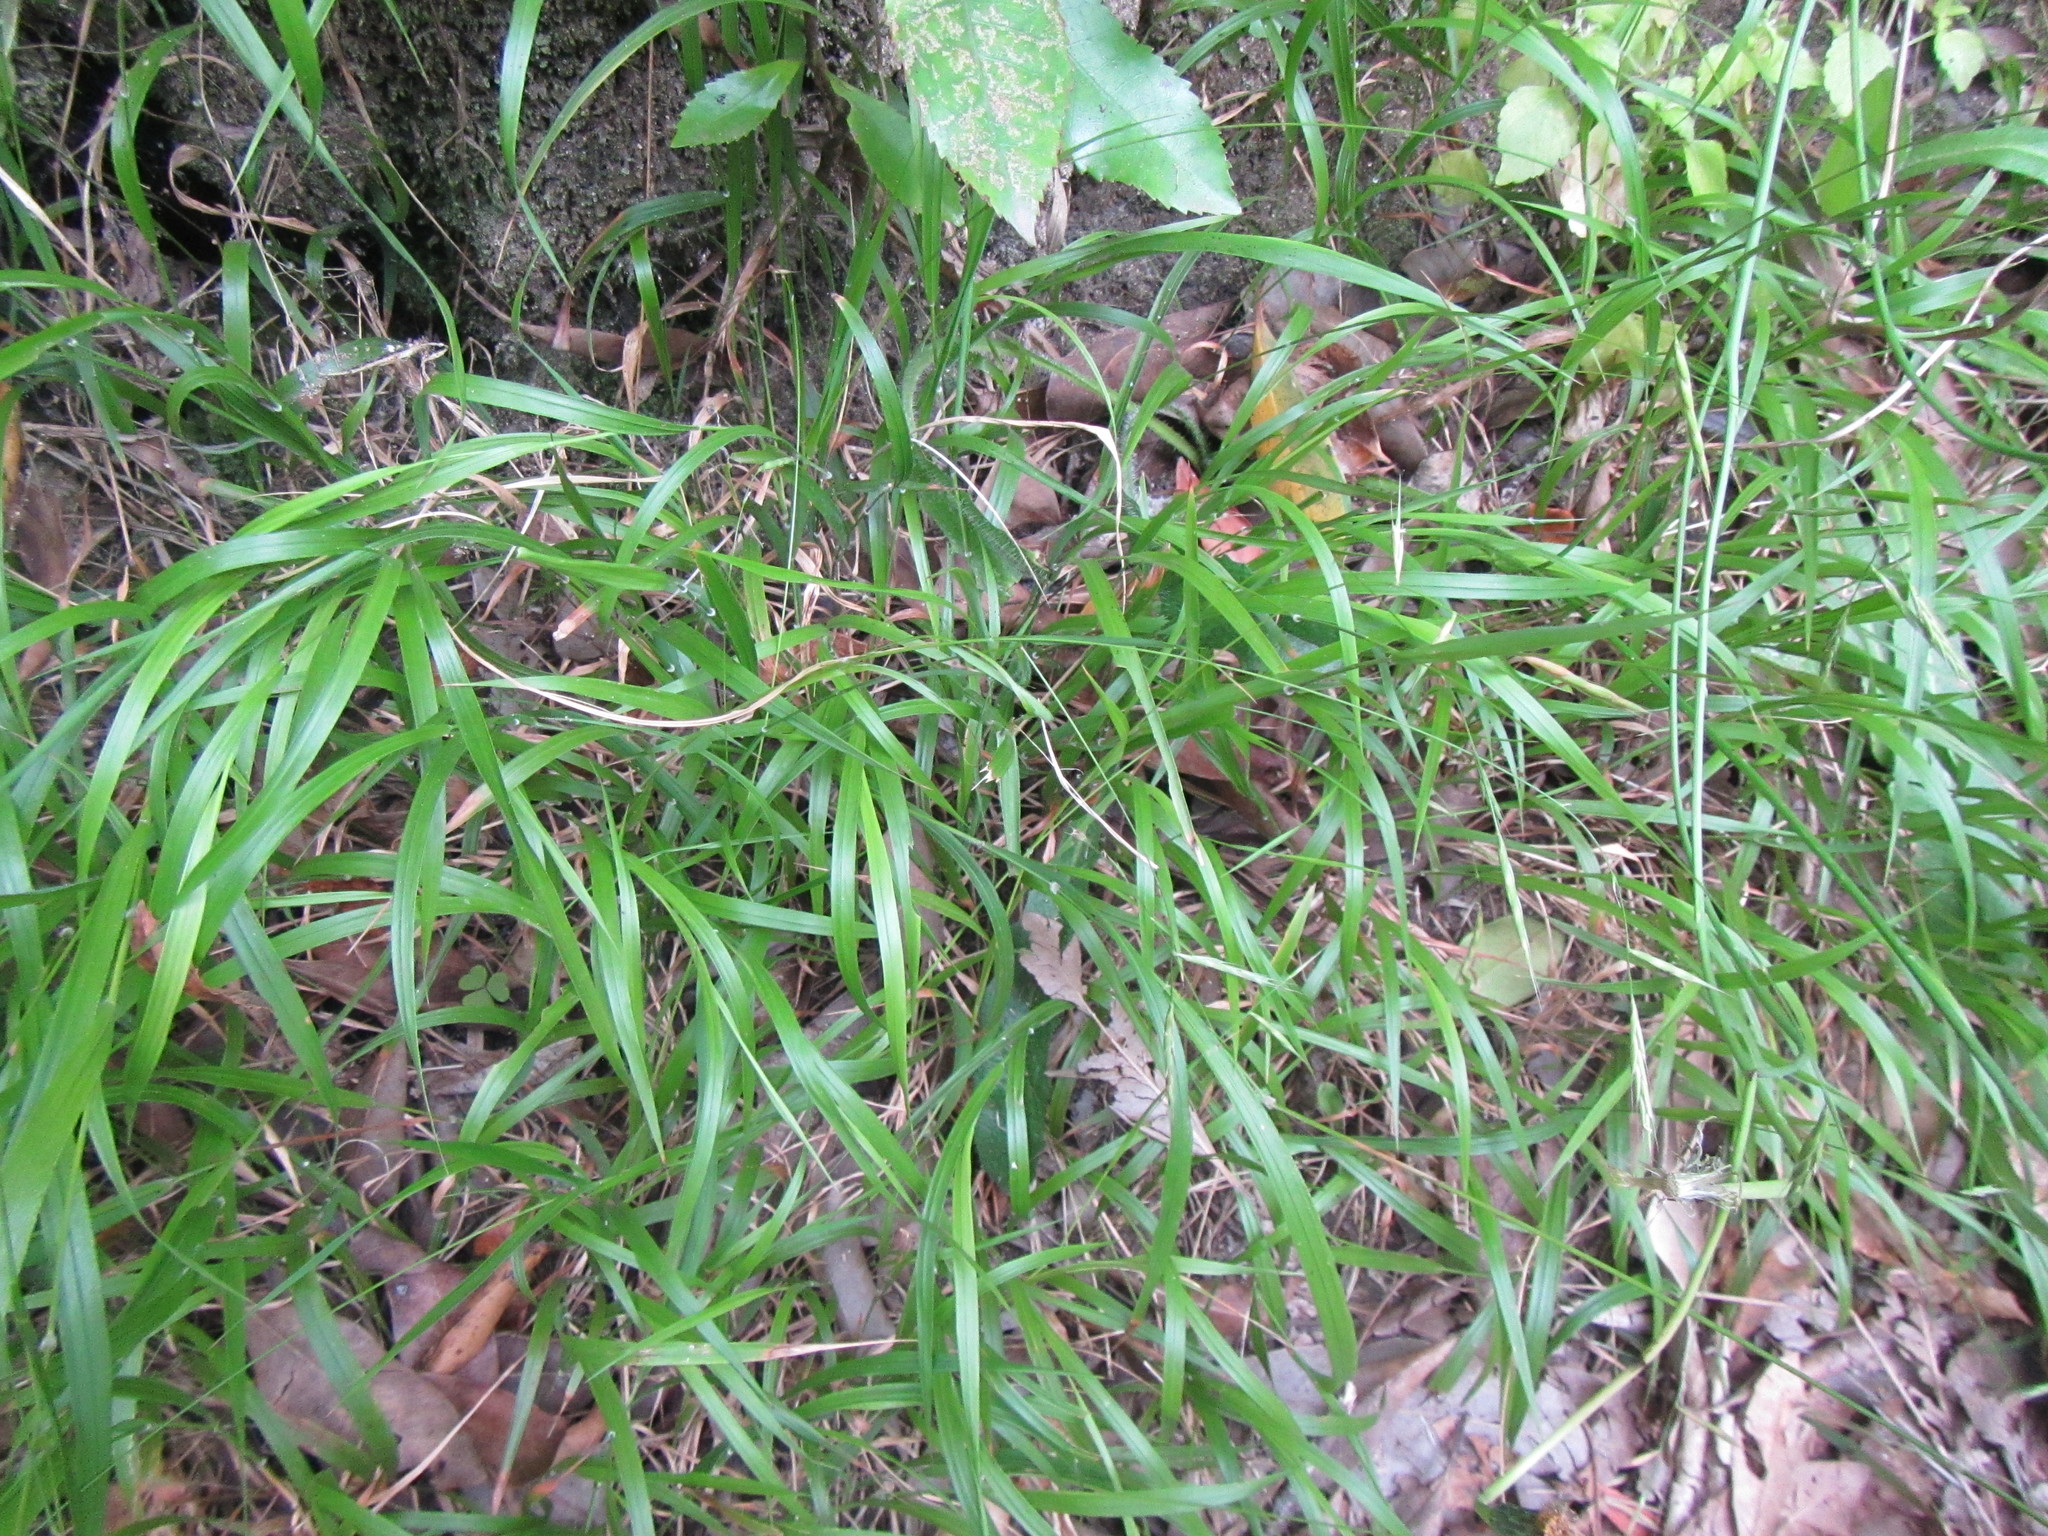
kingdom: Plantae
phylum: Tracheophyta
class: Liliopsida
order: Poales
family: Poaceae
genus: Brachypodium
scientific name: Brachypodium flexum
